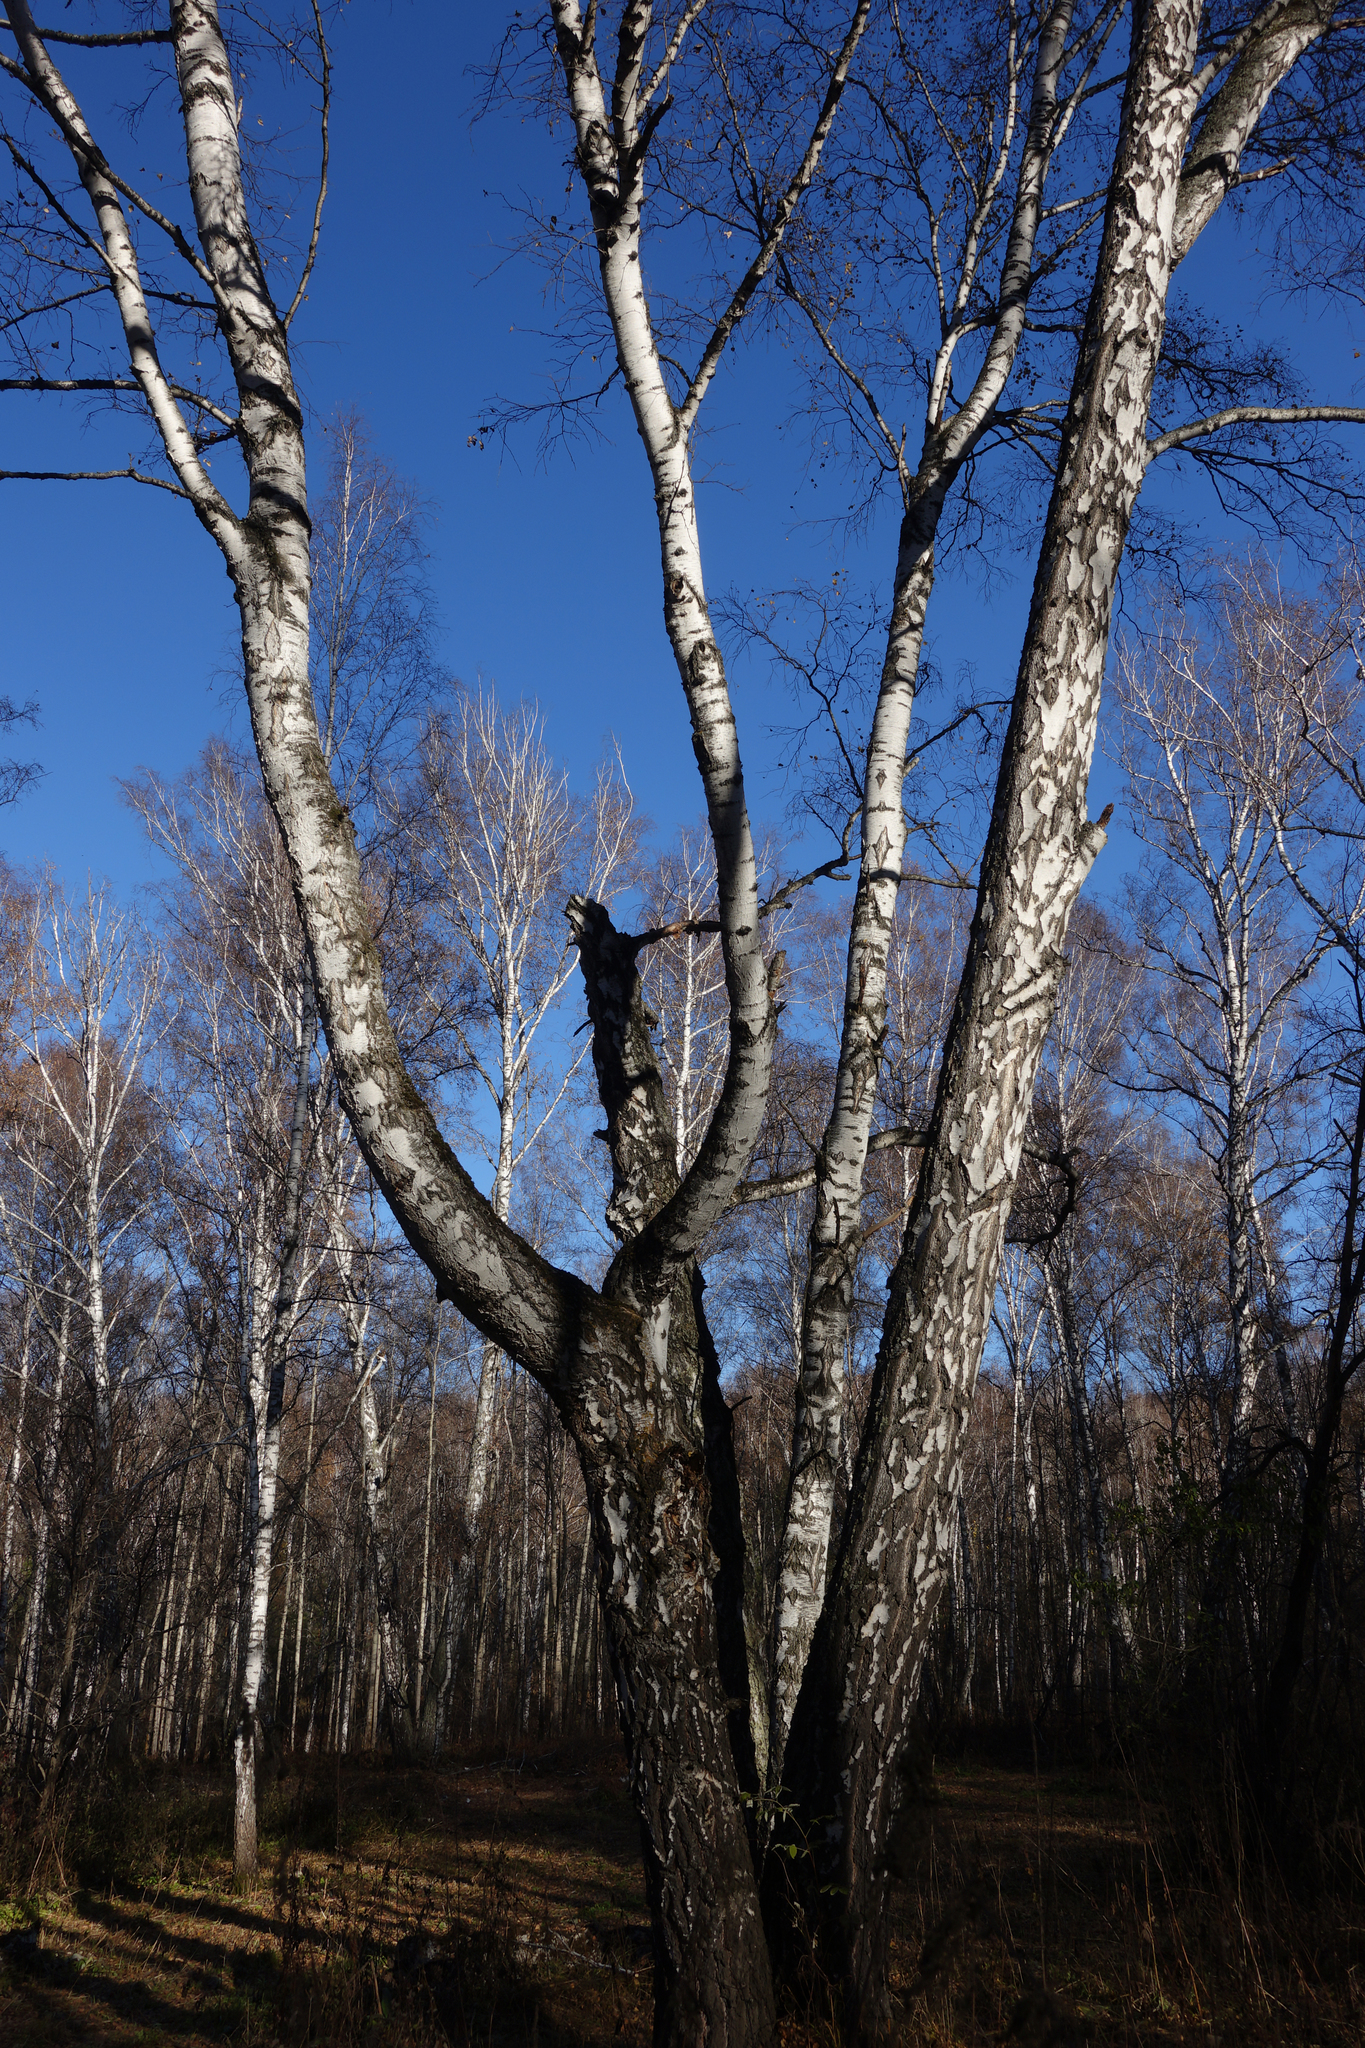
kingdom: Plantae
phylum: Tracheophyta
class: Magnoliopsida
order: Fagales
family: Betulaceae
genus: Betula
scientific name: Betula pendula
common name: Silver birch
